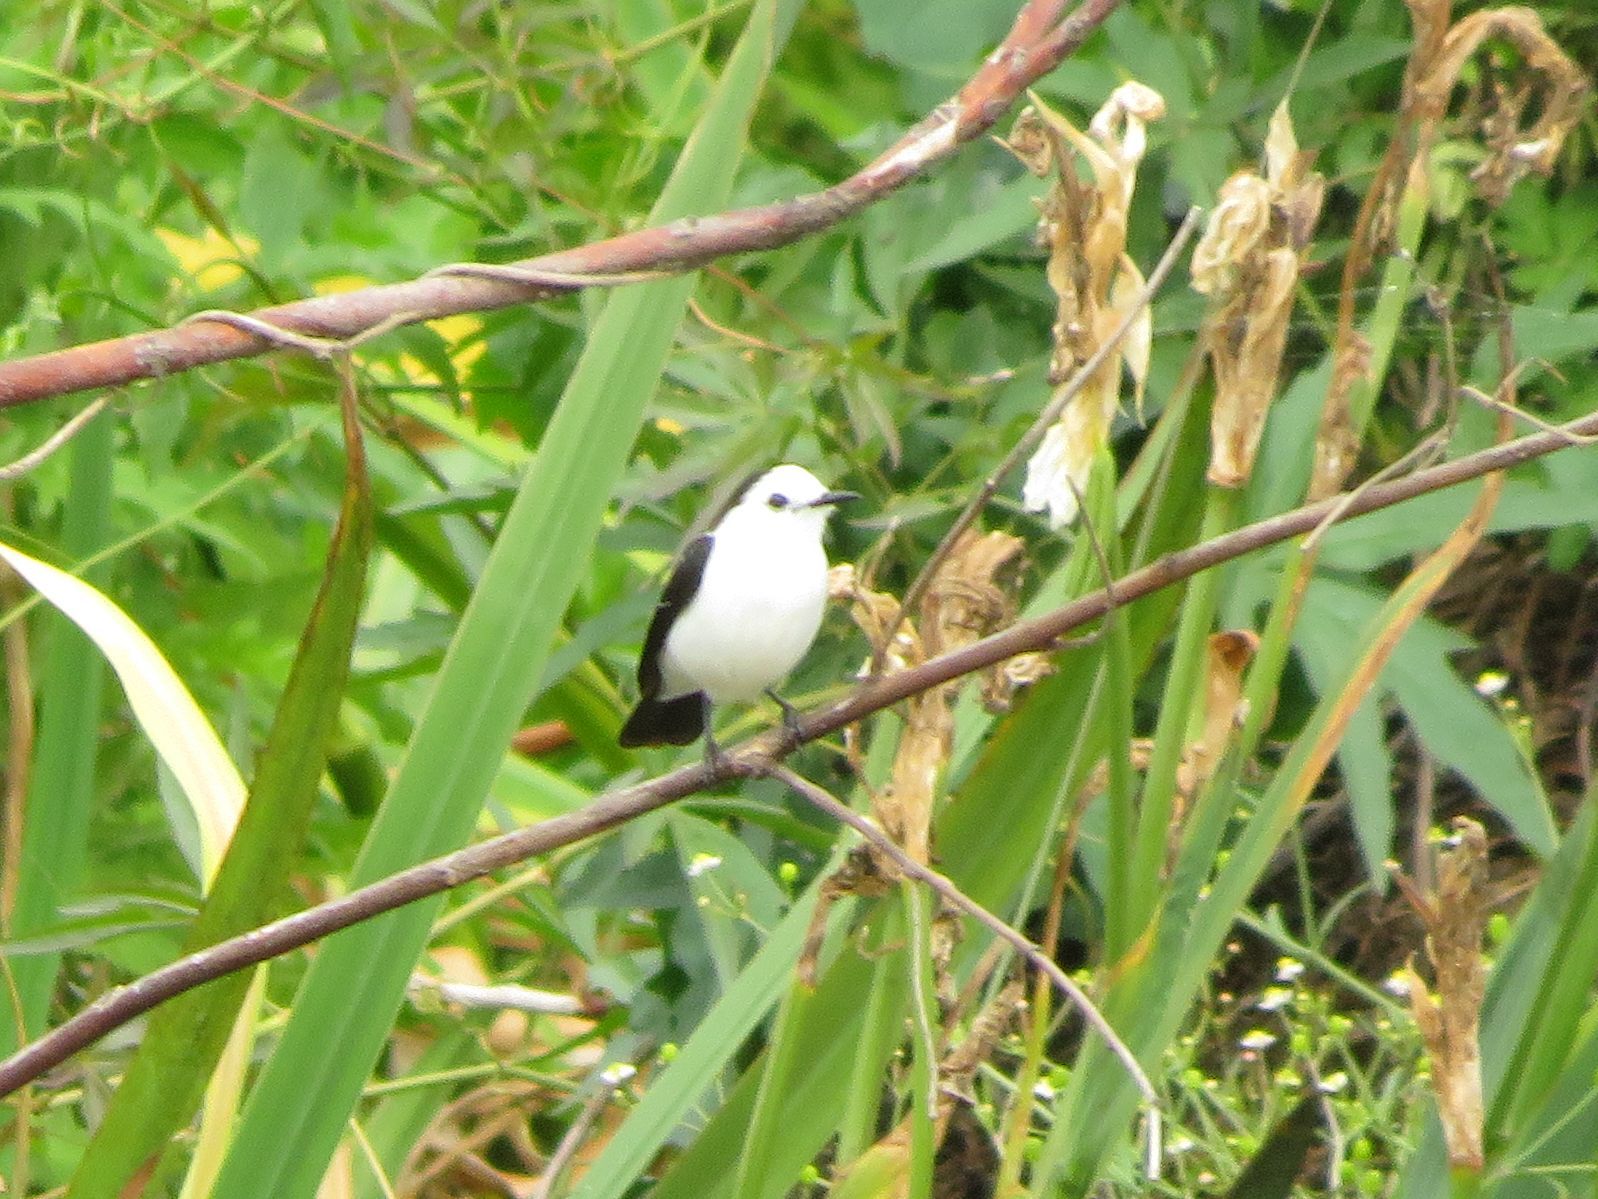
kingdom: Animalia
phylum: Chordata
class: Aves
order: Passeriformes
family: Tyrannidae
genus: Fluvicola
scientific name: Fluvicola pica
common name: Pied water-tyrant
